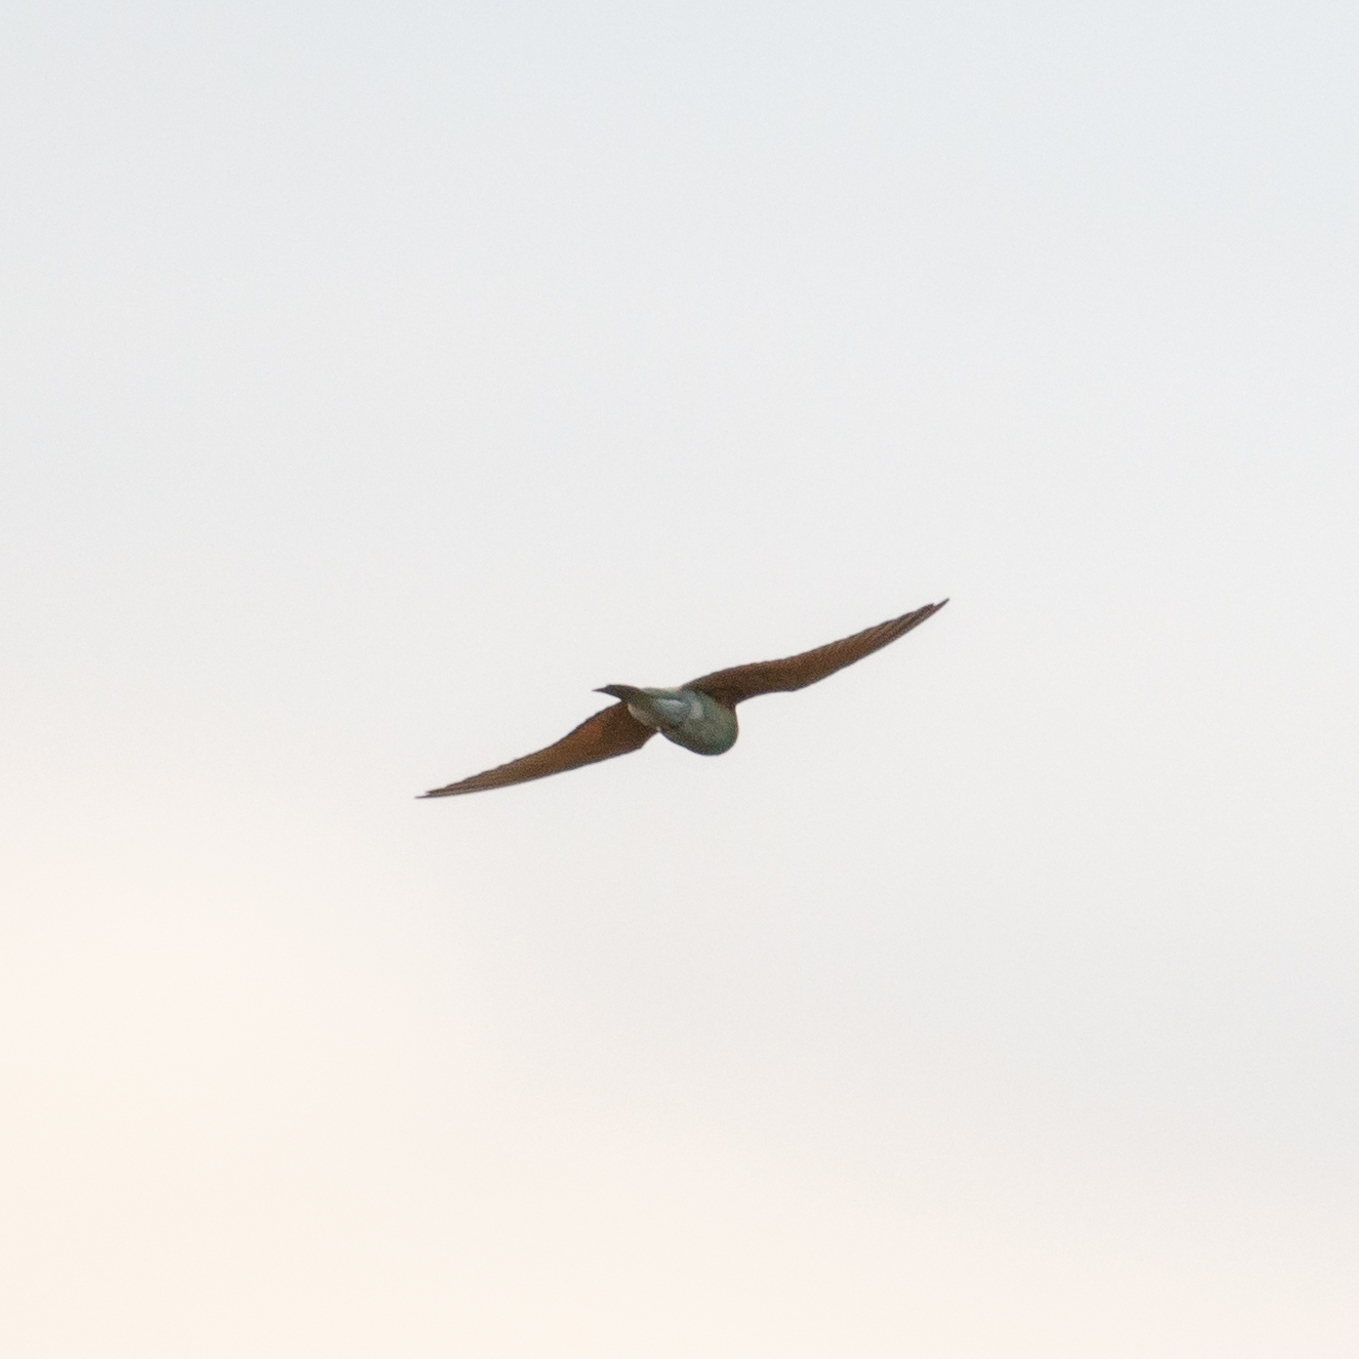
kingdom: Animalia
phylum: Chordata
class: Aves
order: Coraciiformes
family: Meropidae
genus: Merops
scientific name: Merops apiaster
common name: European bee-eater
